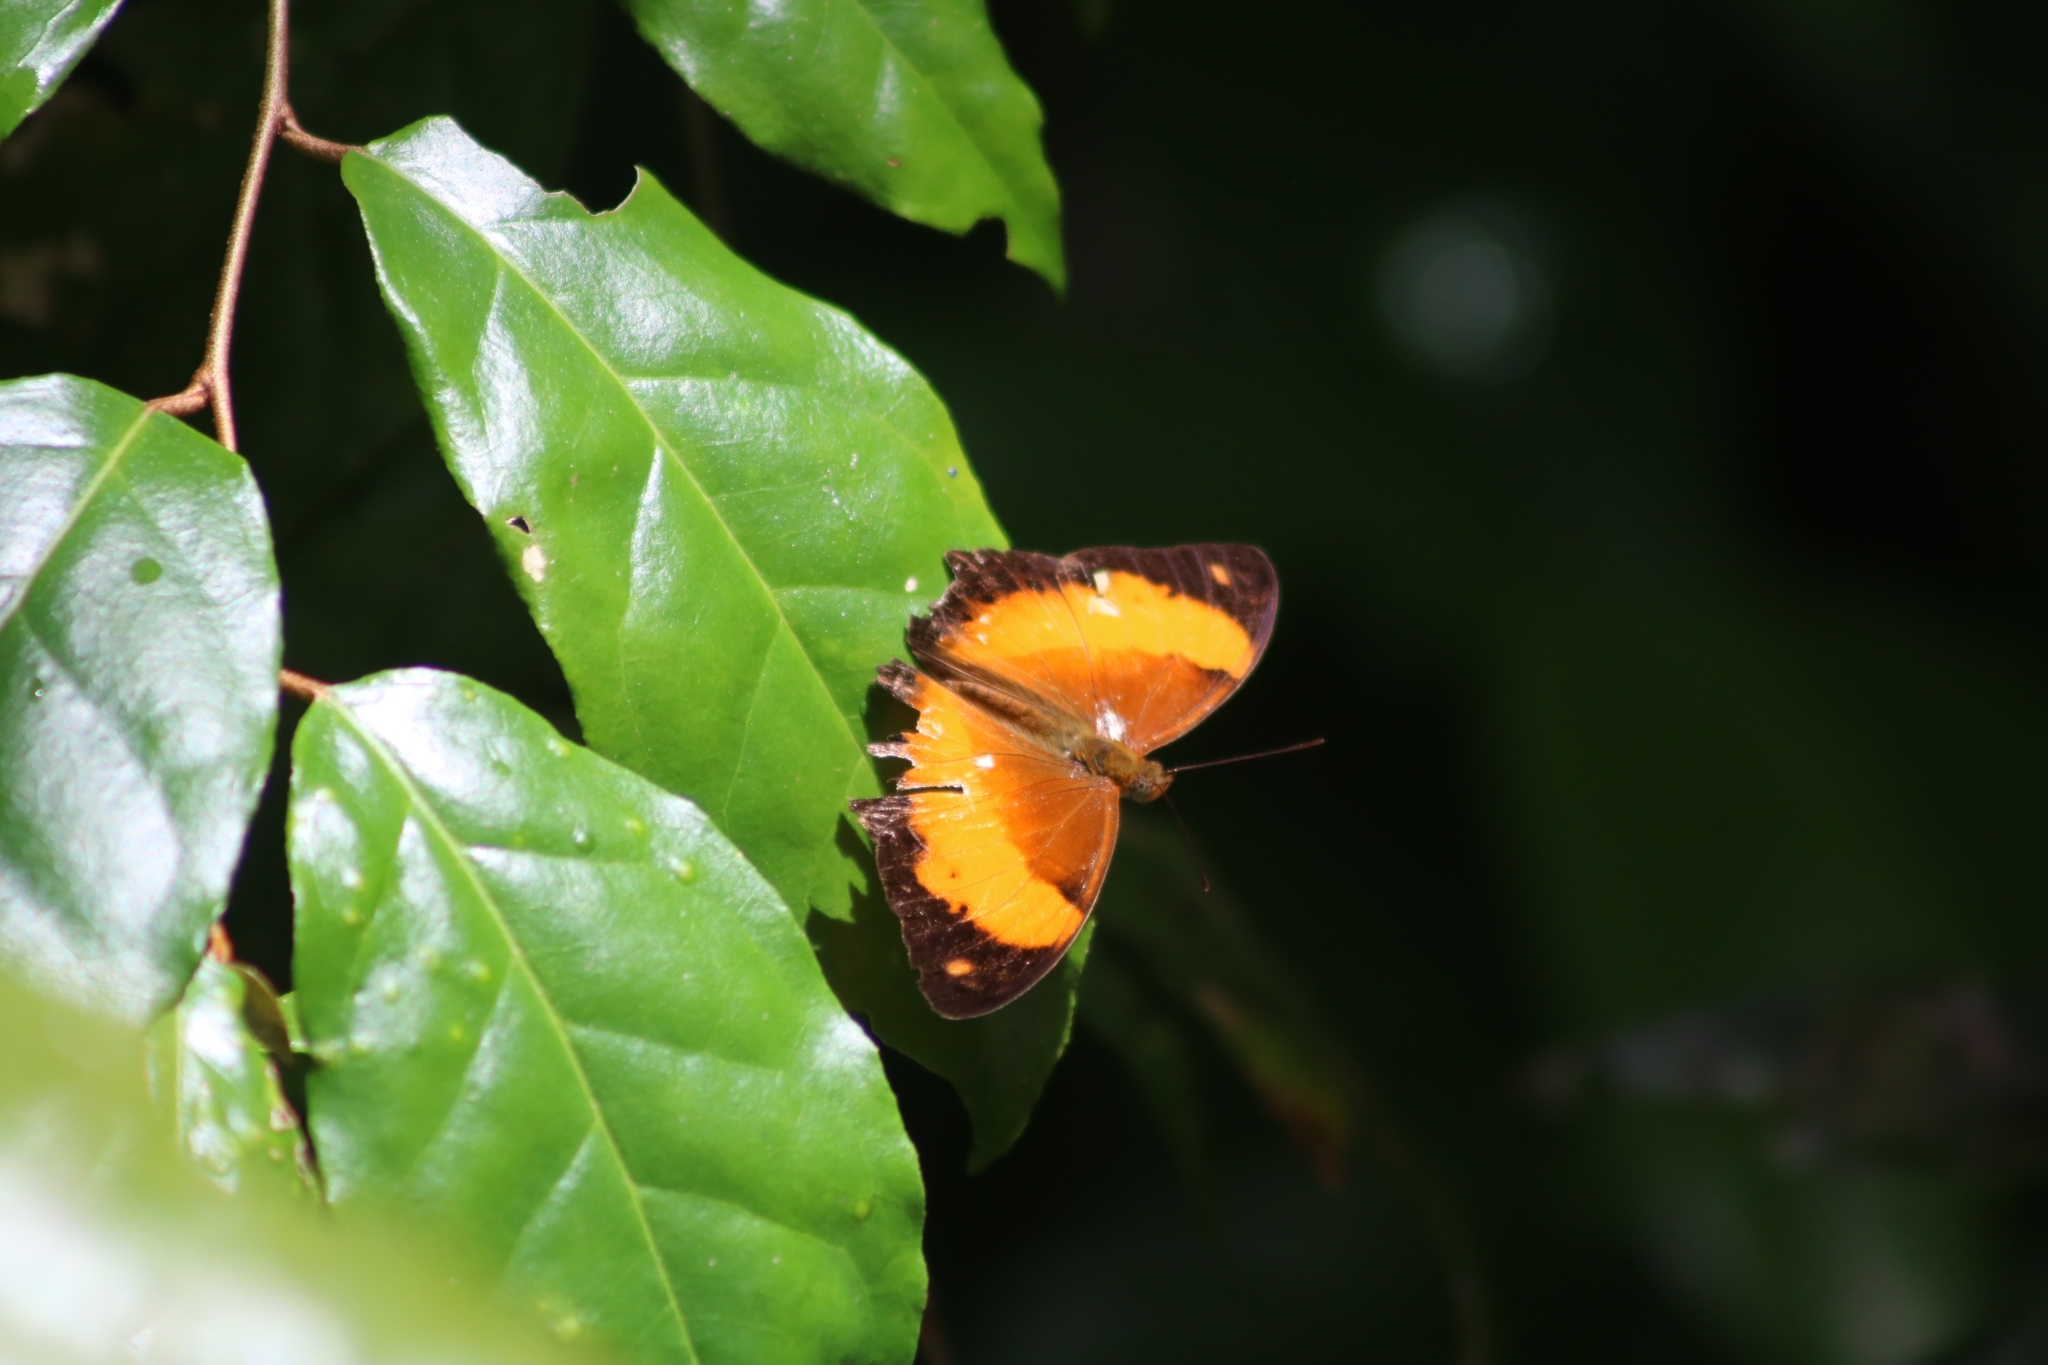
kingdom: Animalia
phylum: Arthropoda
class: Insecta
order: Lepidoptera
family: Nymphalidae
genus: Cupha
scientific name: Cupha prosope
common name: Bordered rustic
